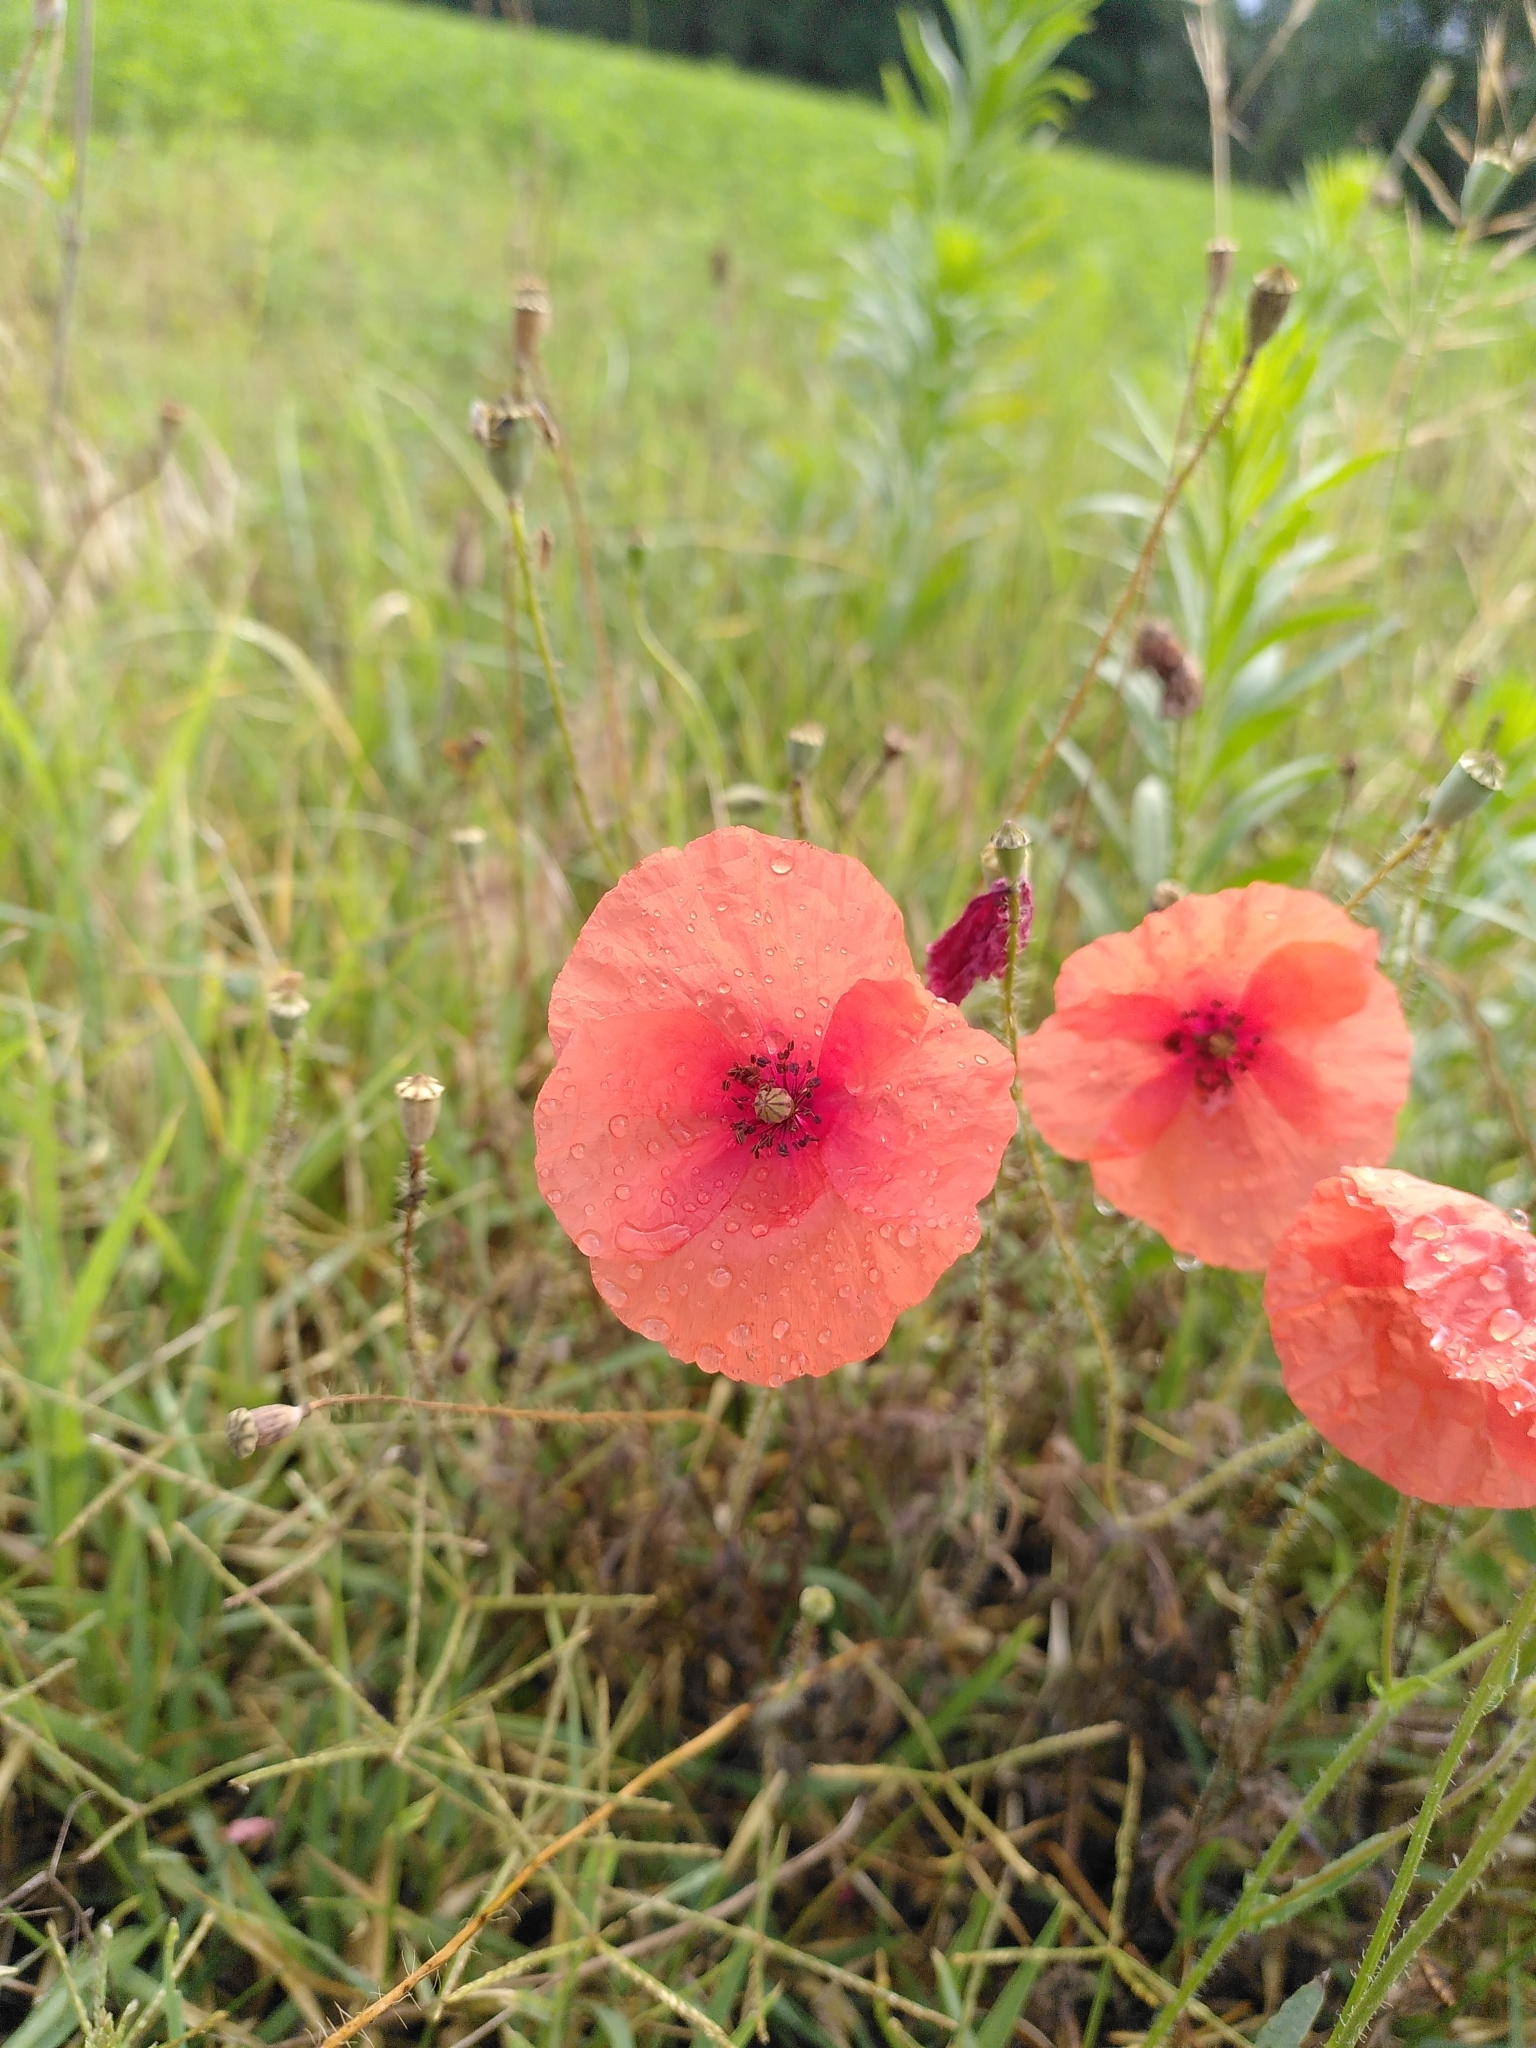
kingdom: Plantae
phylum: Tracheophyta
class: Magnoliopsida
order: Ranunculales
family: Papaveraceae
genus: Papaver
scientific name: Papaver rhoeas
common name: Corn poppy
